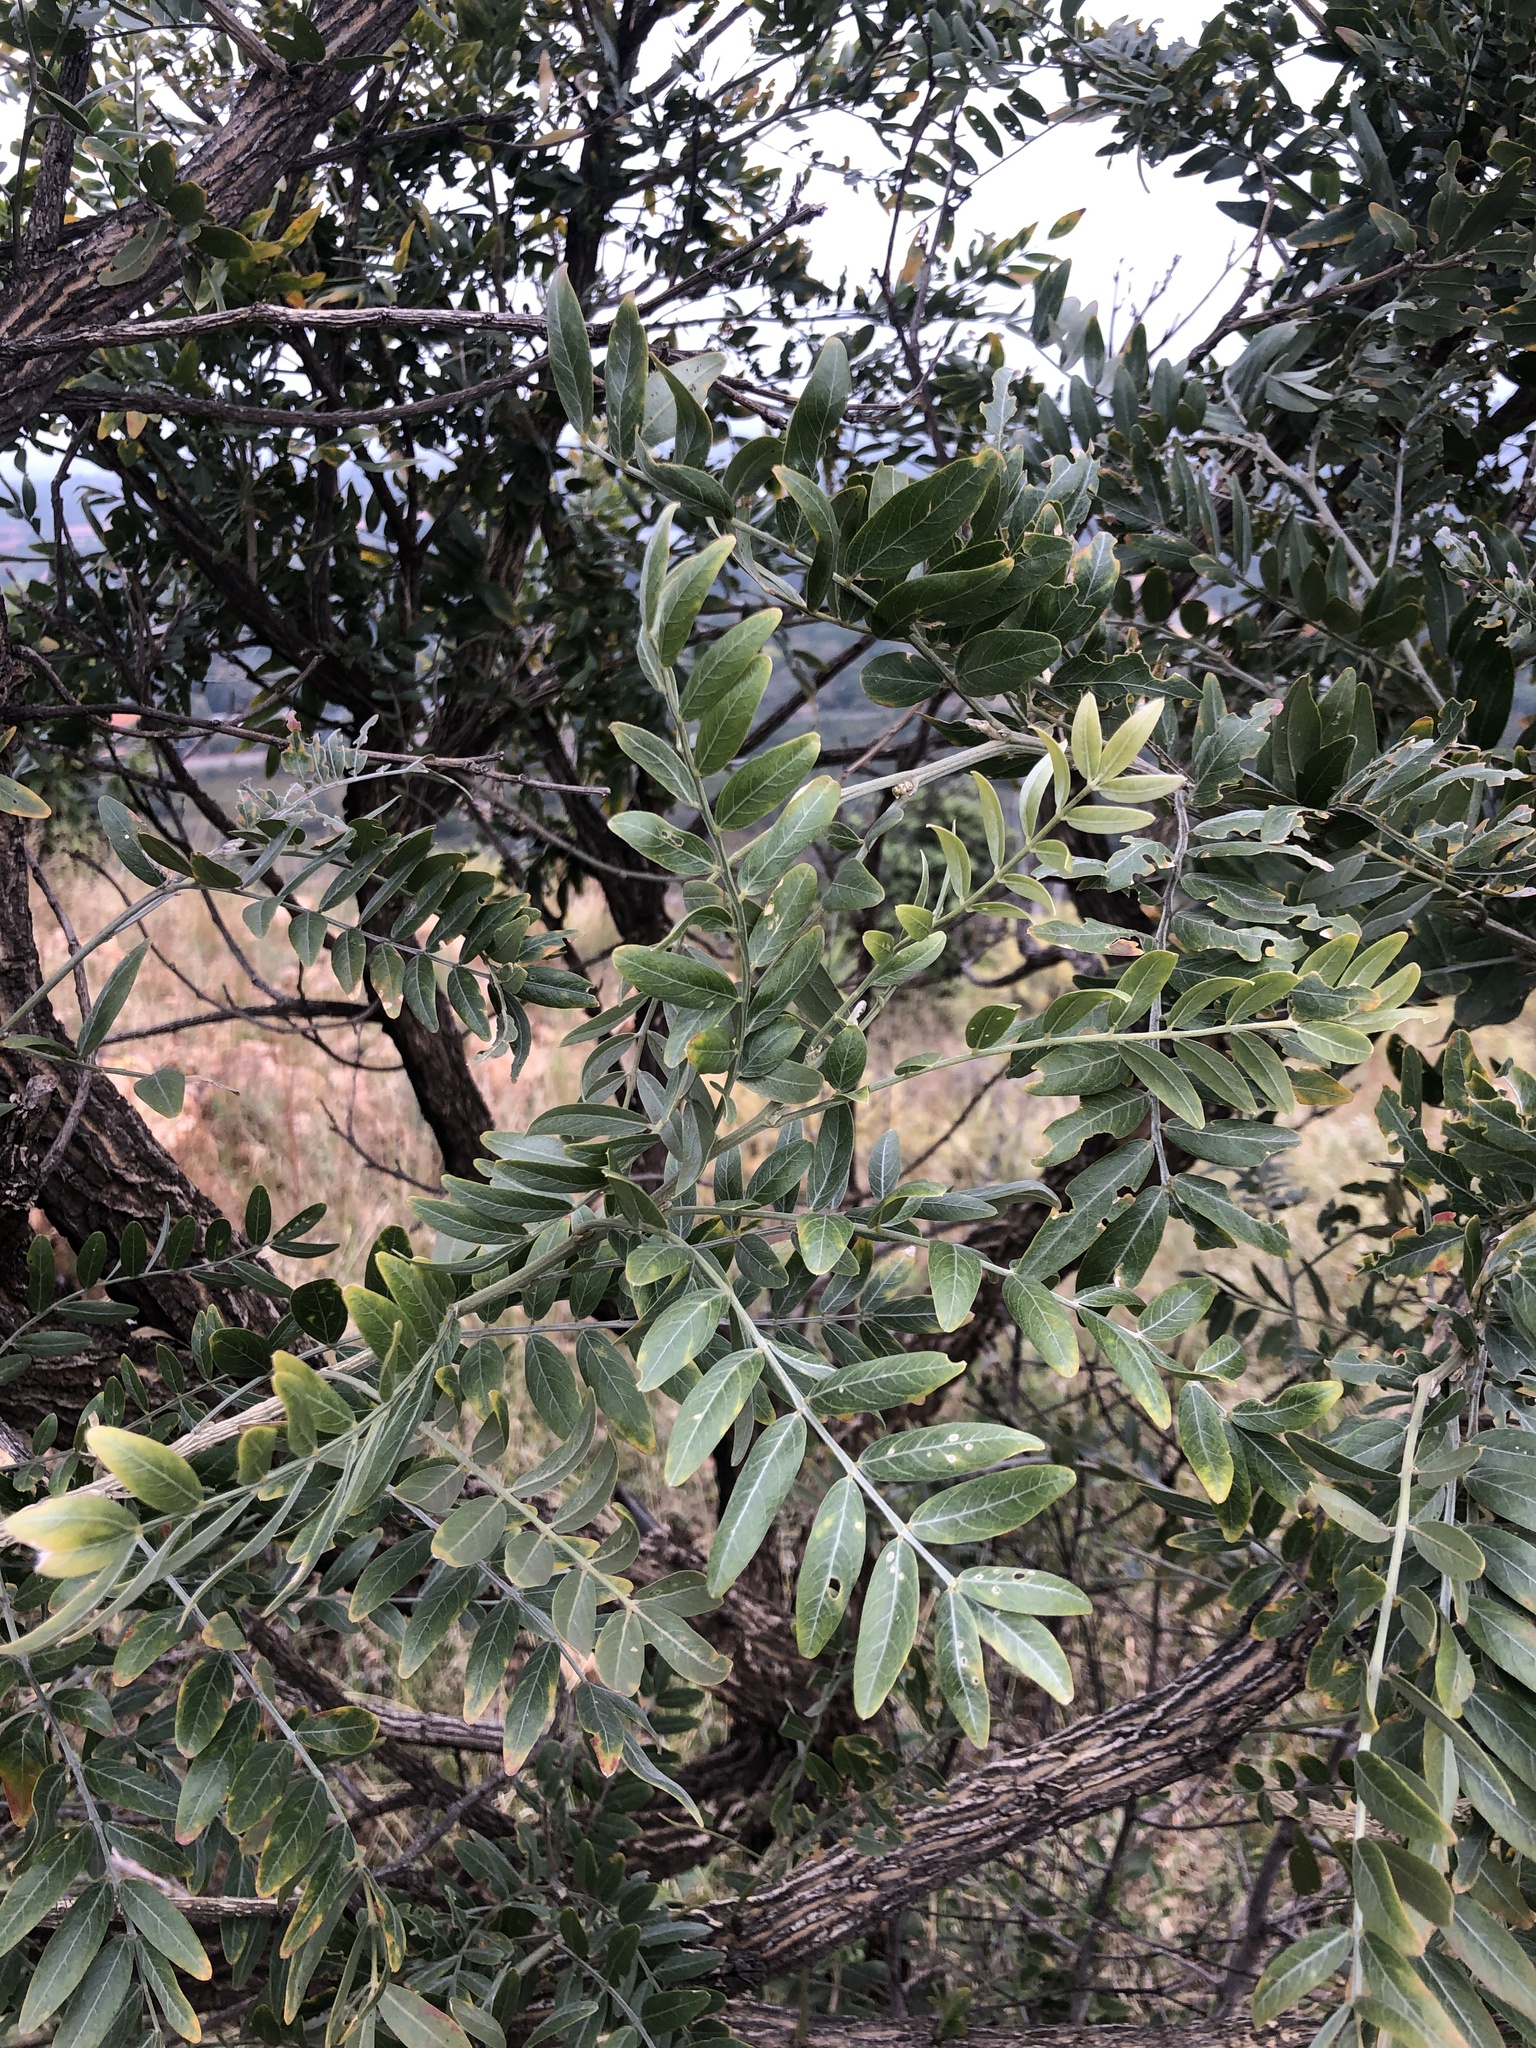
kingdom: Plantae
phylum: Tracheophyta
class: Magnoliopsida
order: Fabales
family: Fabaceae
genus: Mundulea
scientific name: Mundulea sericea
